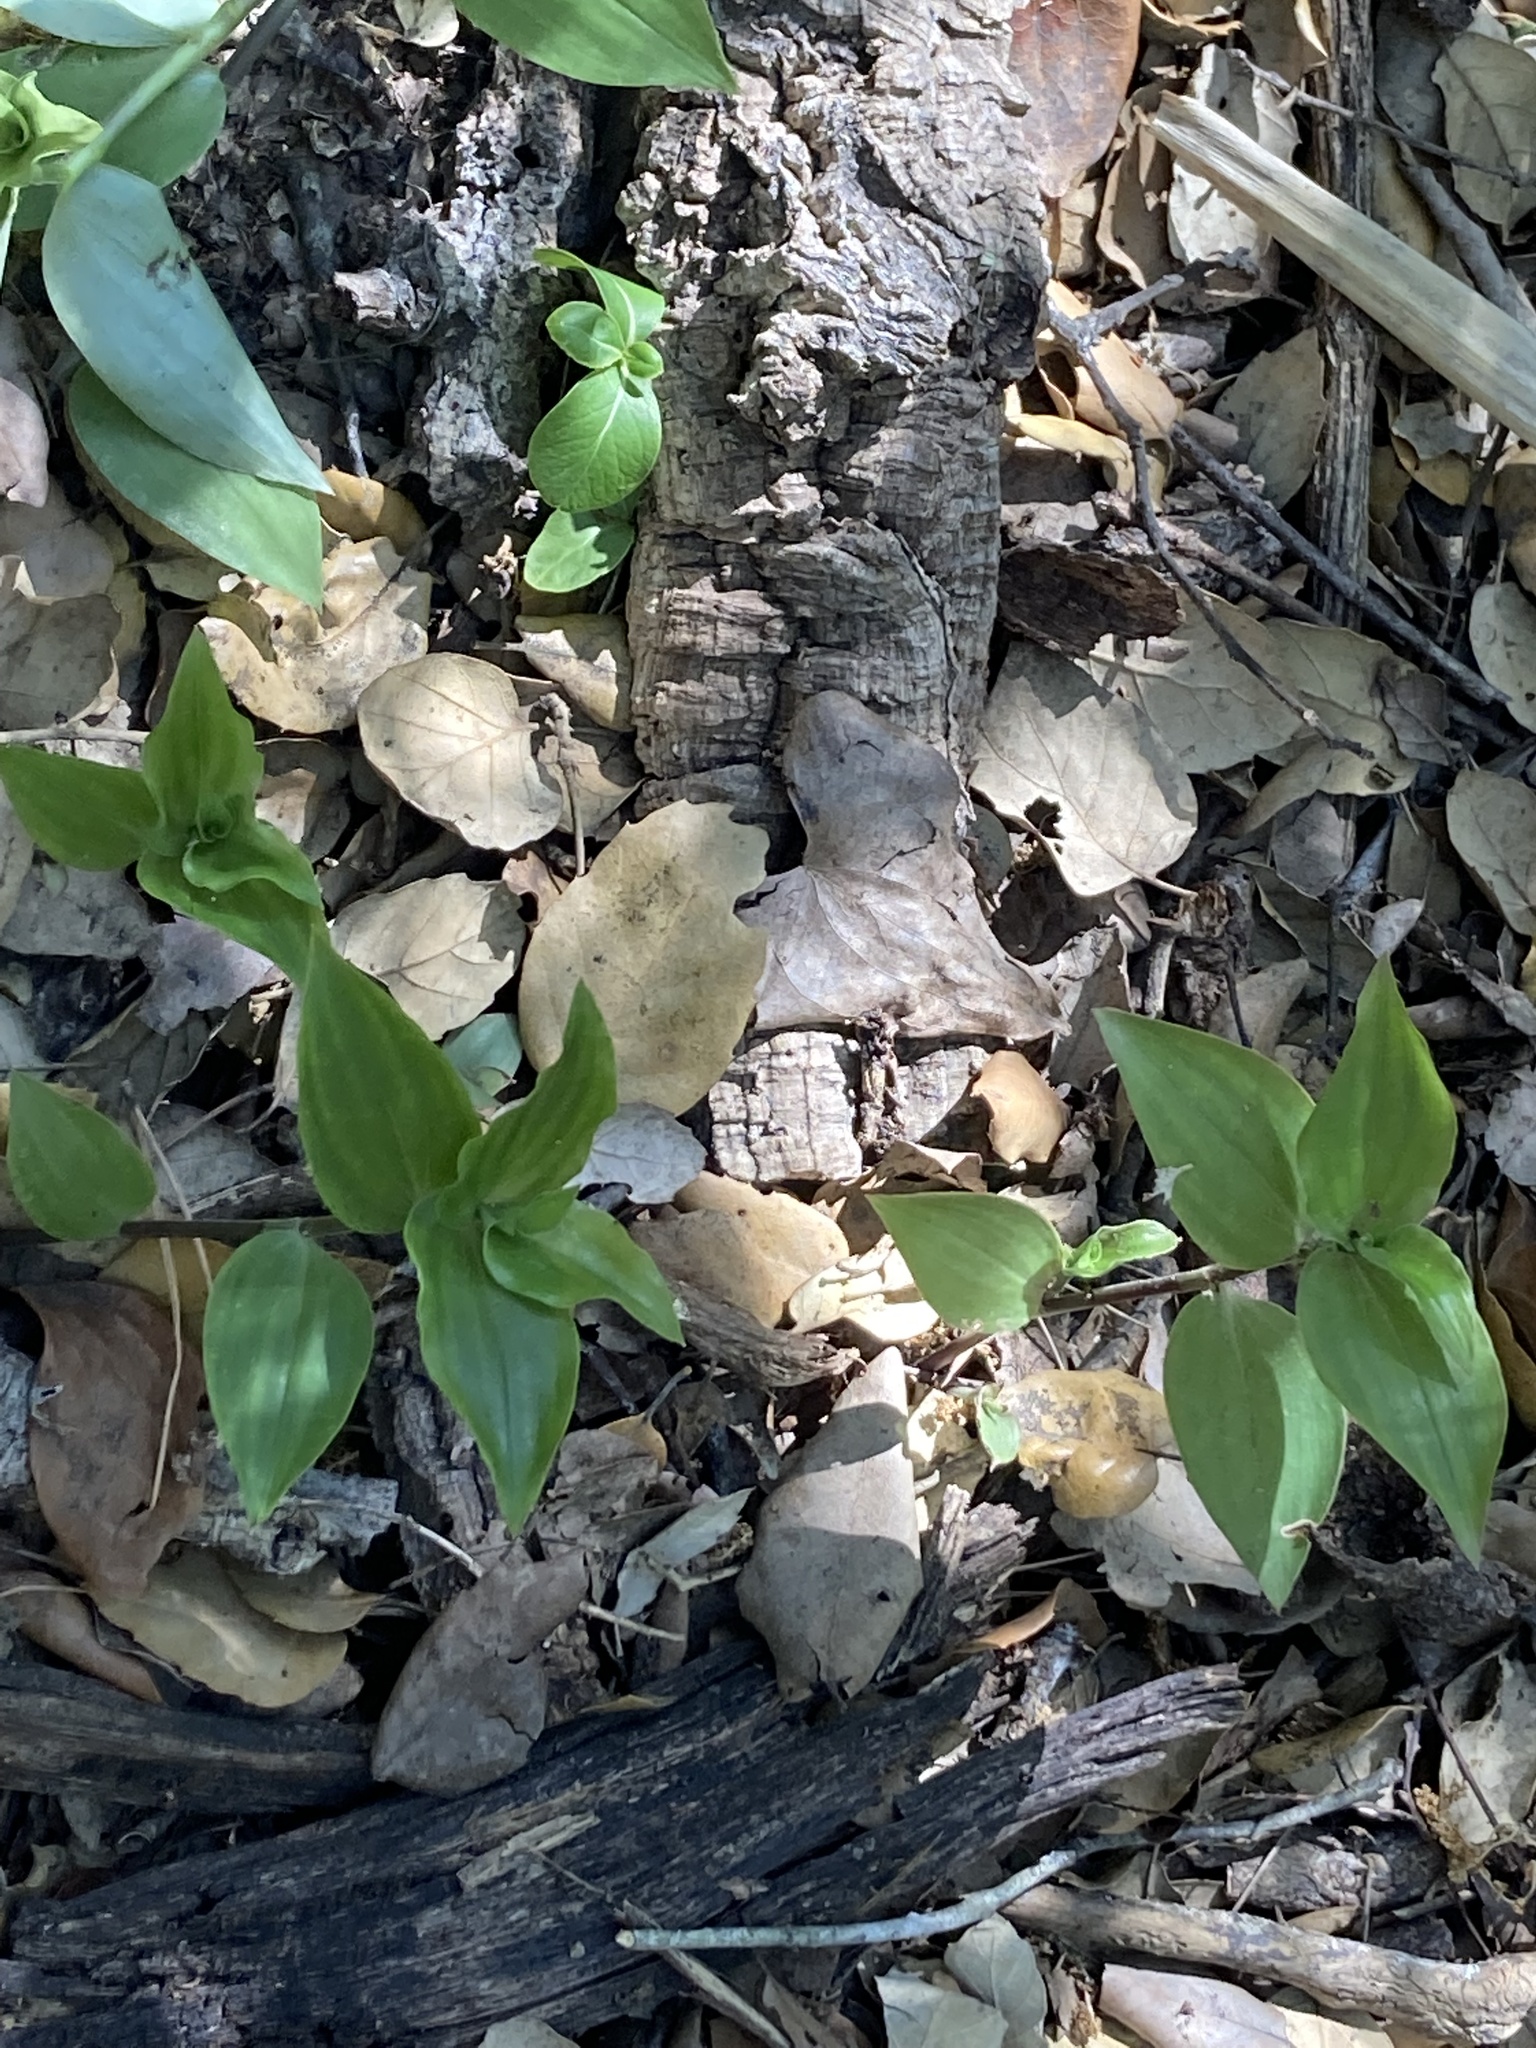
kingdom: Plantae
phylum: Tracheophyta
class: Liliopsida
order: Commelinales
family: Commelinaceae
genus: Tradescantia
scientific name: Tradescantia fluminensis
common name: Wandering-jew
